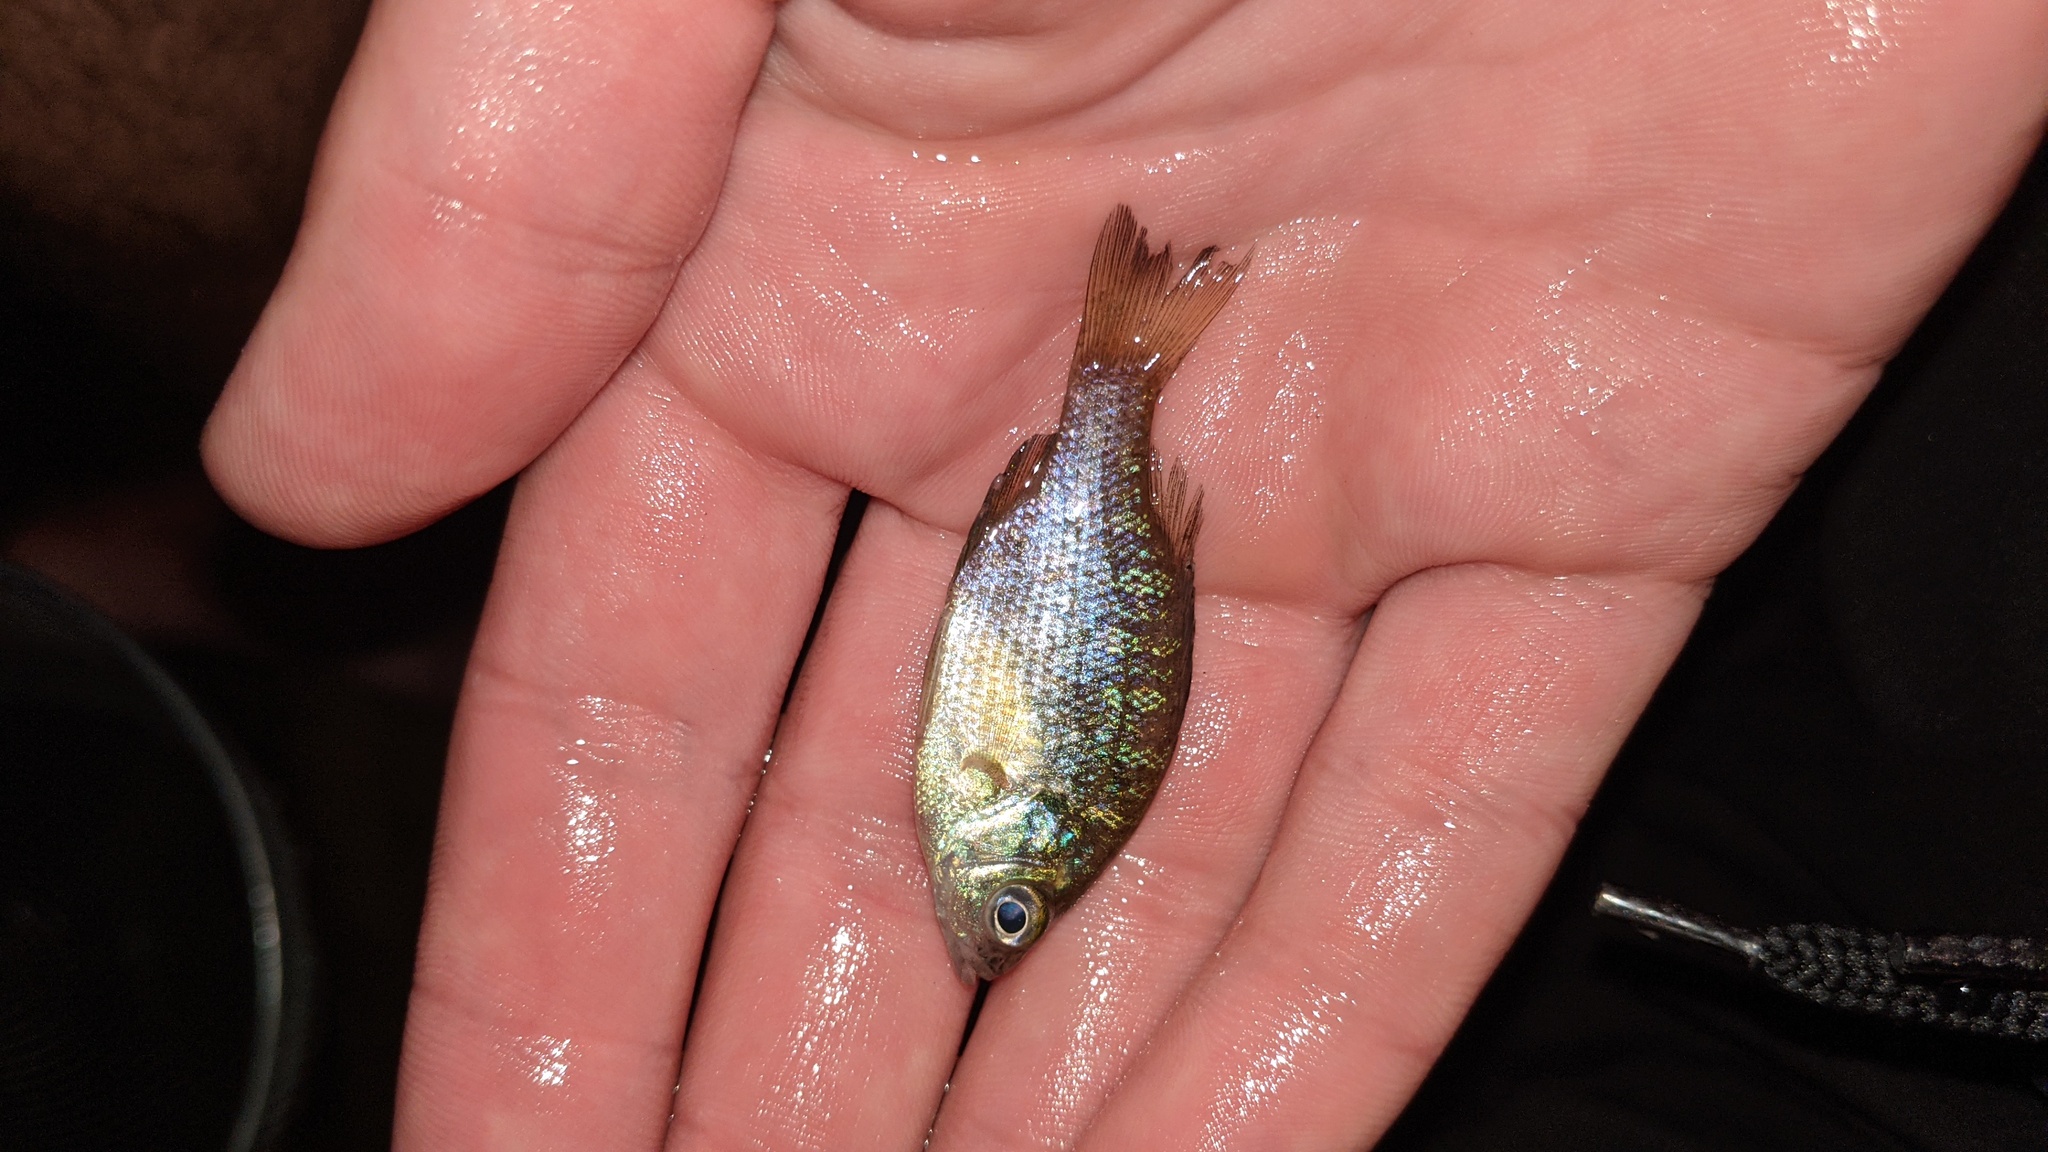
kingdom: Animalia
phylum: Chordata
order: Perciformes
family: Centrarchidae
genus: Lepomis
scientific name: Lepomis macrochirus
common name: Bluegill
